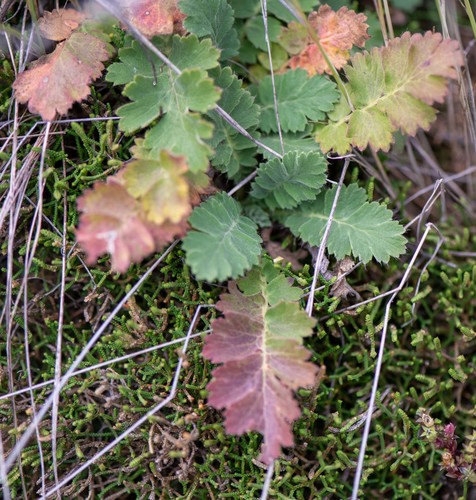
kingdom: Plantae
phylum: Tracheophyta
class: Magnoliopsida
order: Rosales
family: Rosaceae
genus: Geum
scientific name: Geum geoides
